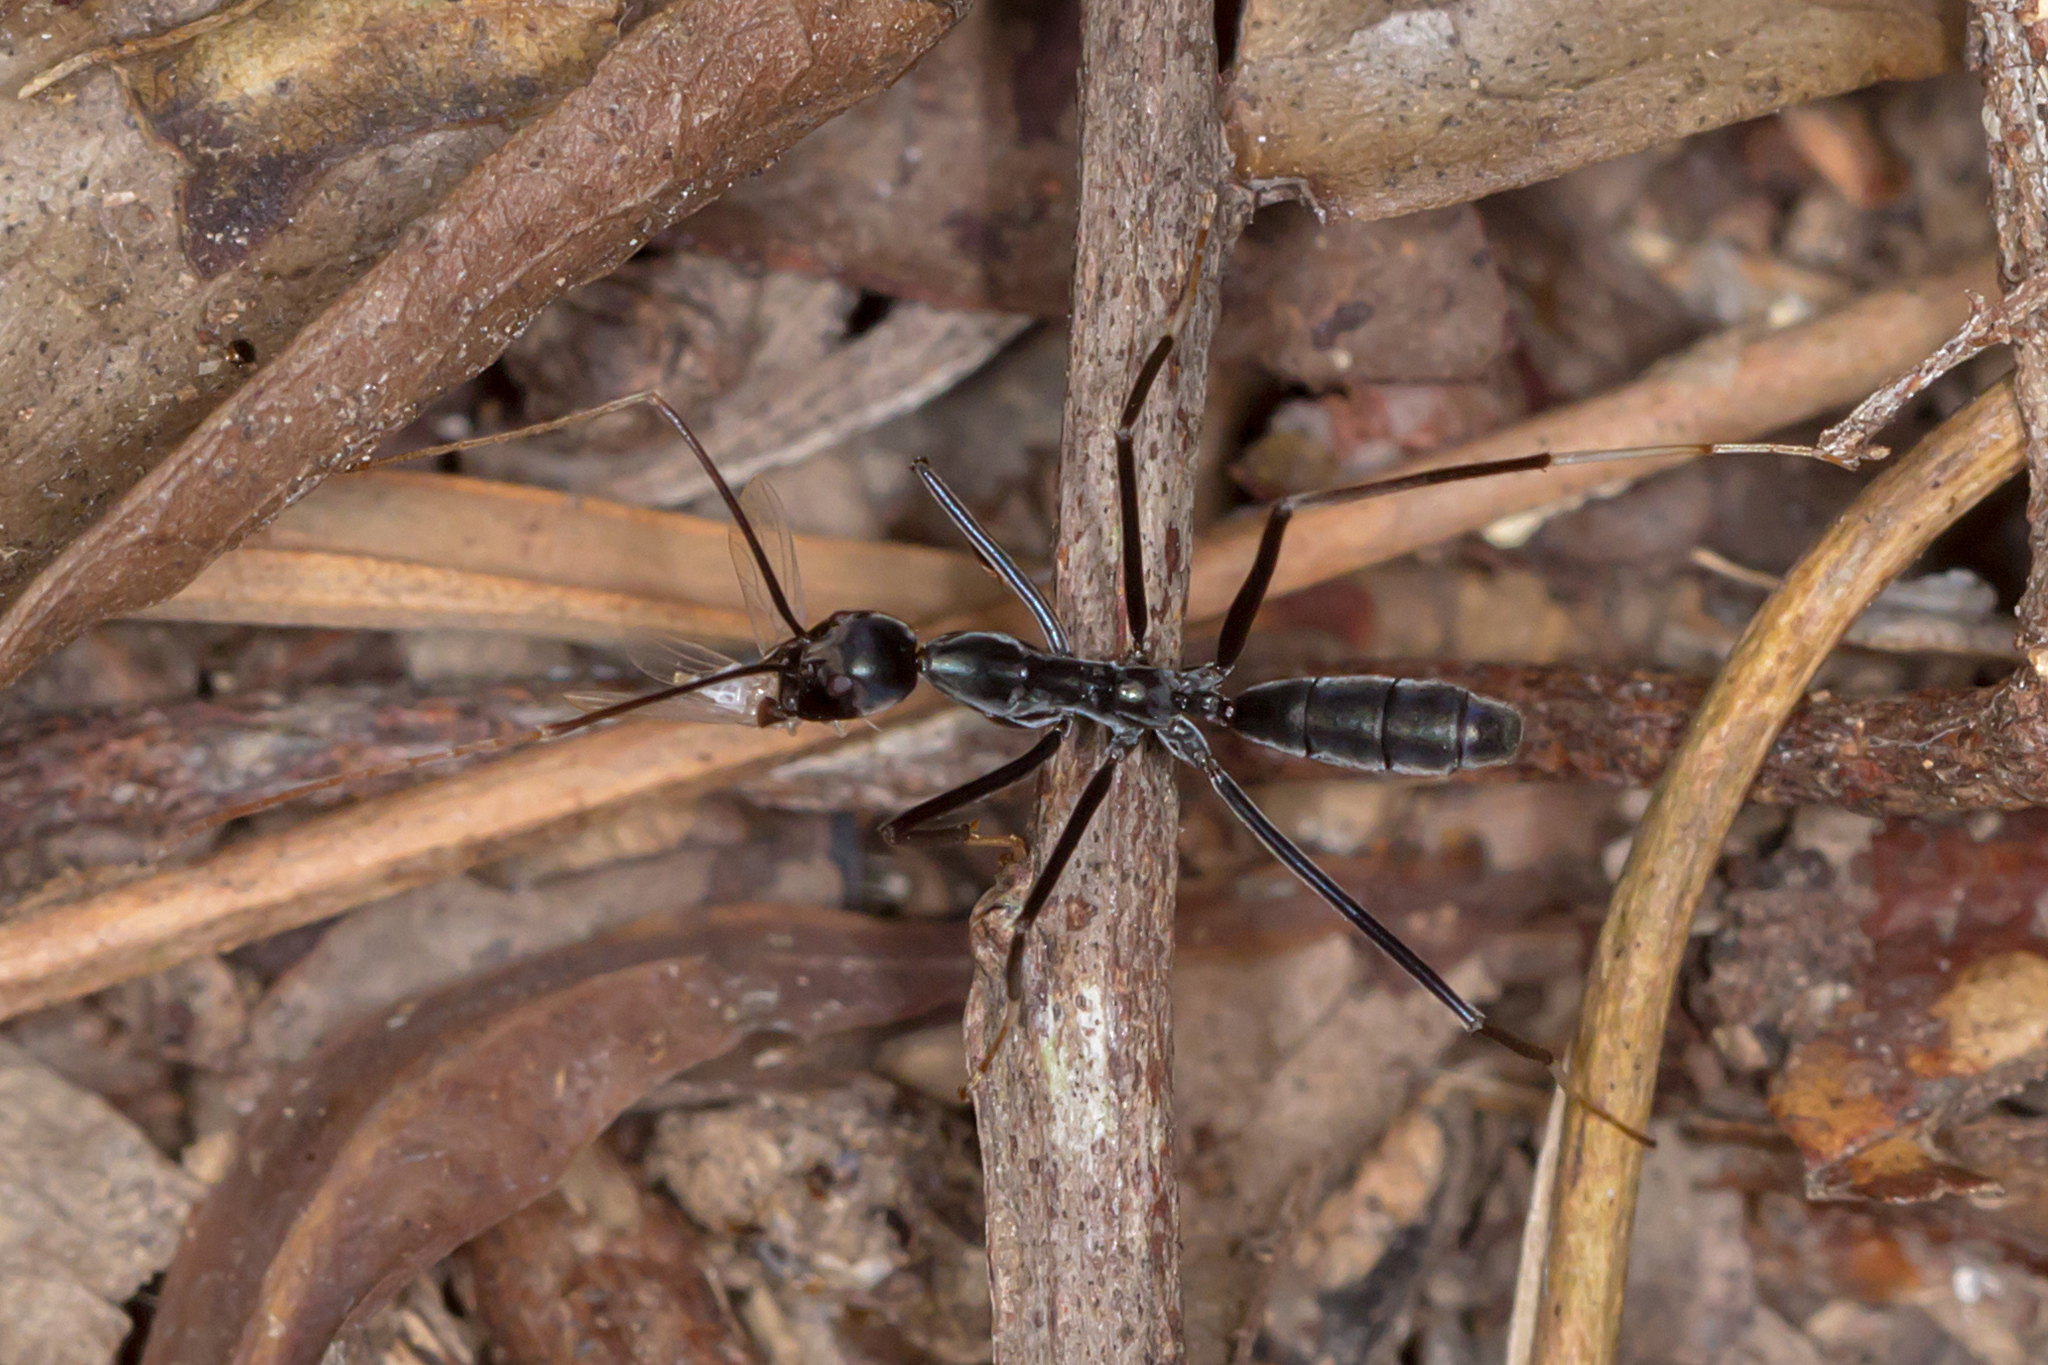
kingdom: Animalia
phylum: Arthropoda
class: Insecta
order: Hymenoptera
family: Formicidae
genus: Leptomyrmex
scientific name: Leptomyrmex unicolor
